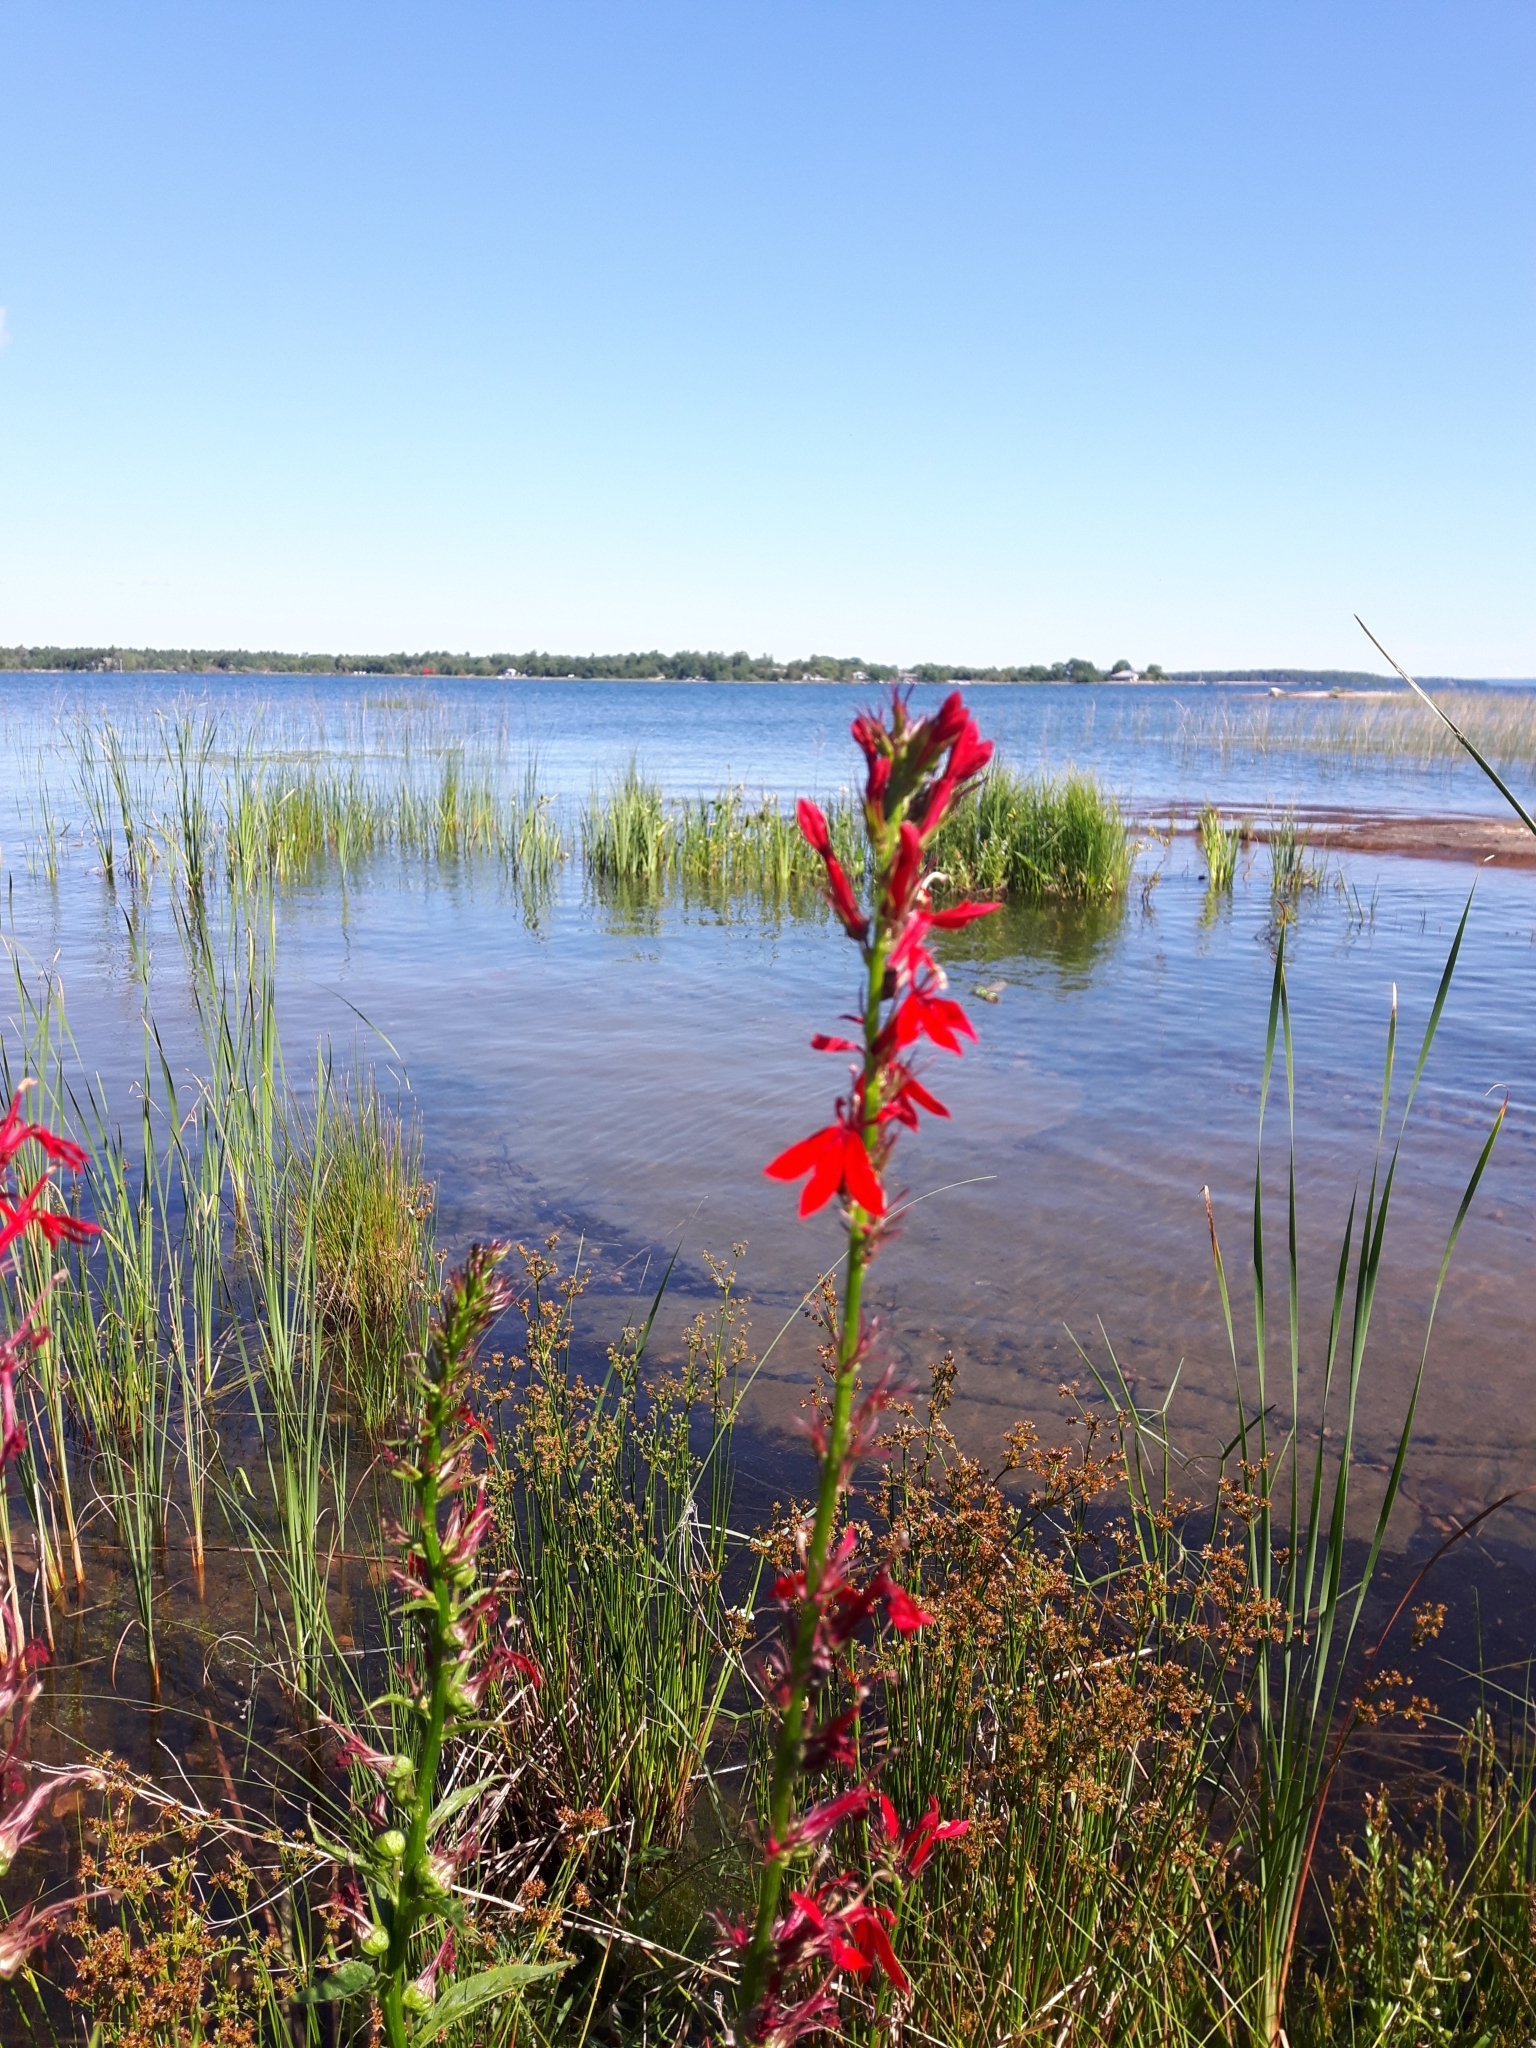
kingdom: Plantae
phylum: Tracheophyta
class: Magnoliopsida
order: Asterales
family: Campanulaceae
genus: Lobelia
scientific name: Lobelia cardinalis
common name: Cardinal flower
